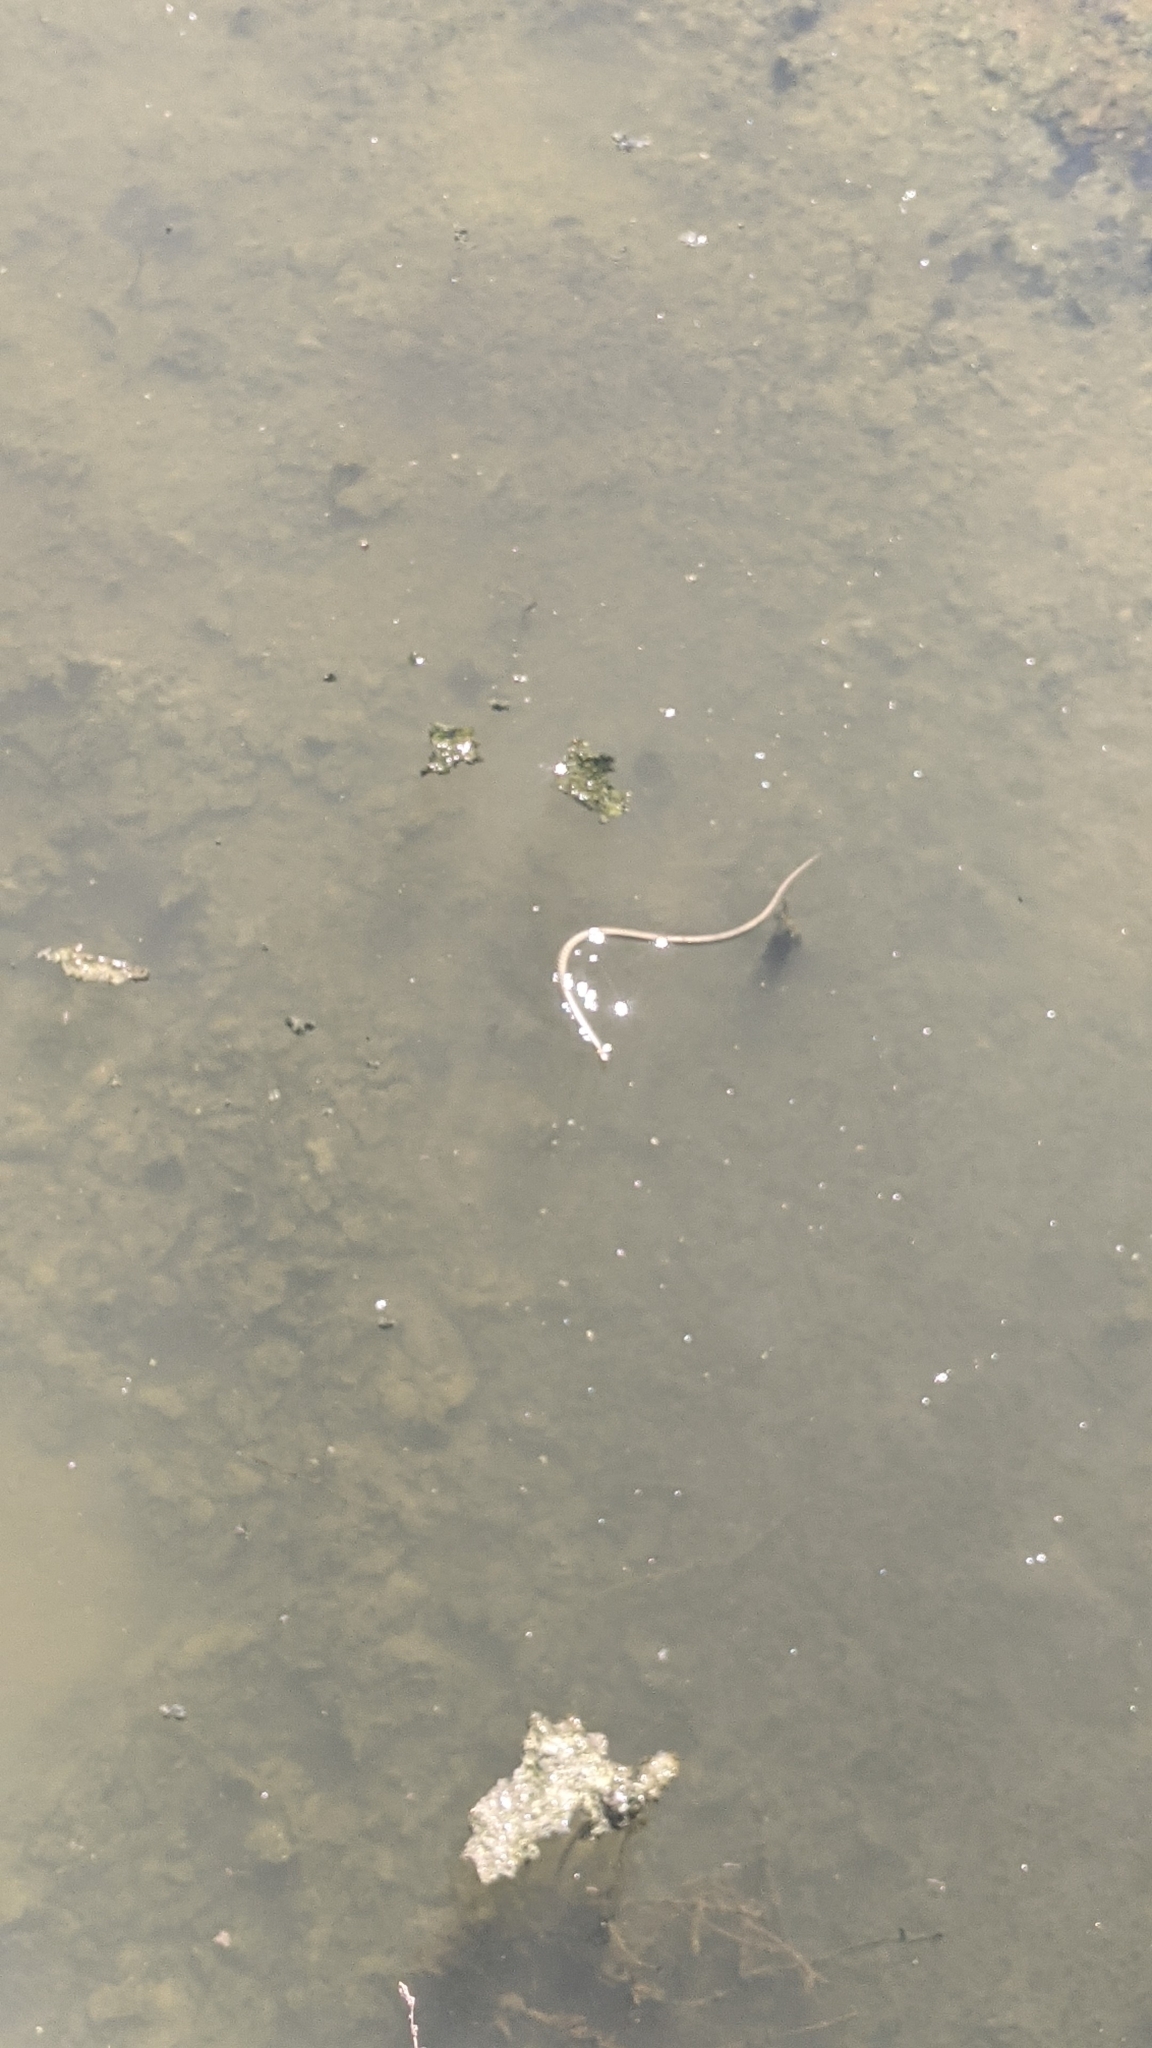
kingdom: Animalia
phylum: Chordata
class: Squamata
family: Colubridae
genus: Natrix
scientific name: Natrix natrix
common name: Grass snake
